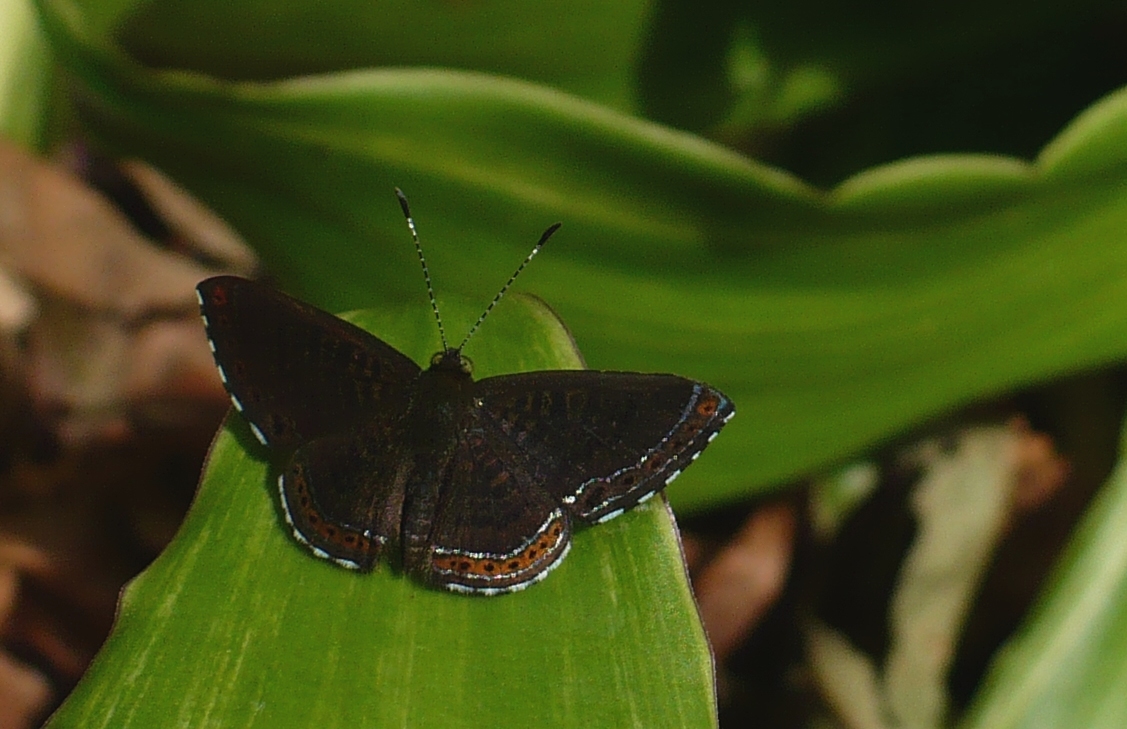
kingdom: Animalia
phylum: Arthropoda
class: Insecta
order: Lepidoptera
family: Riodinidae
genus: Detritivora
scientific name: Detritivora
